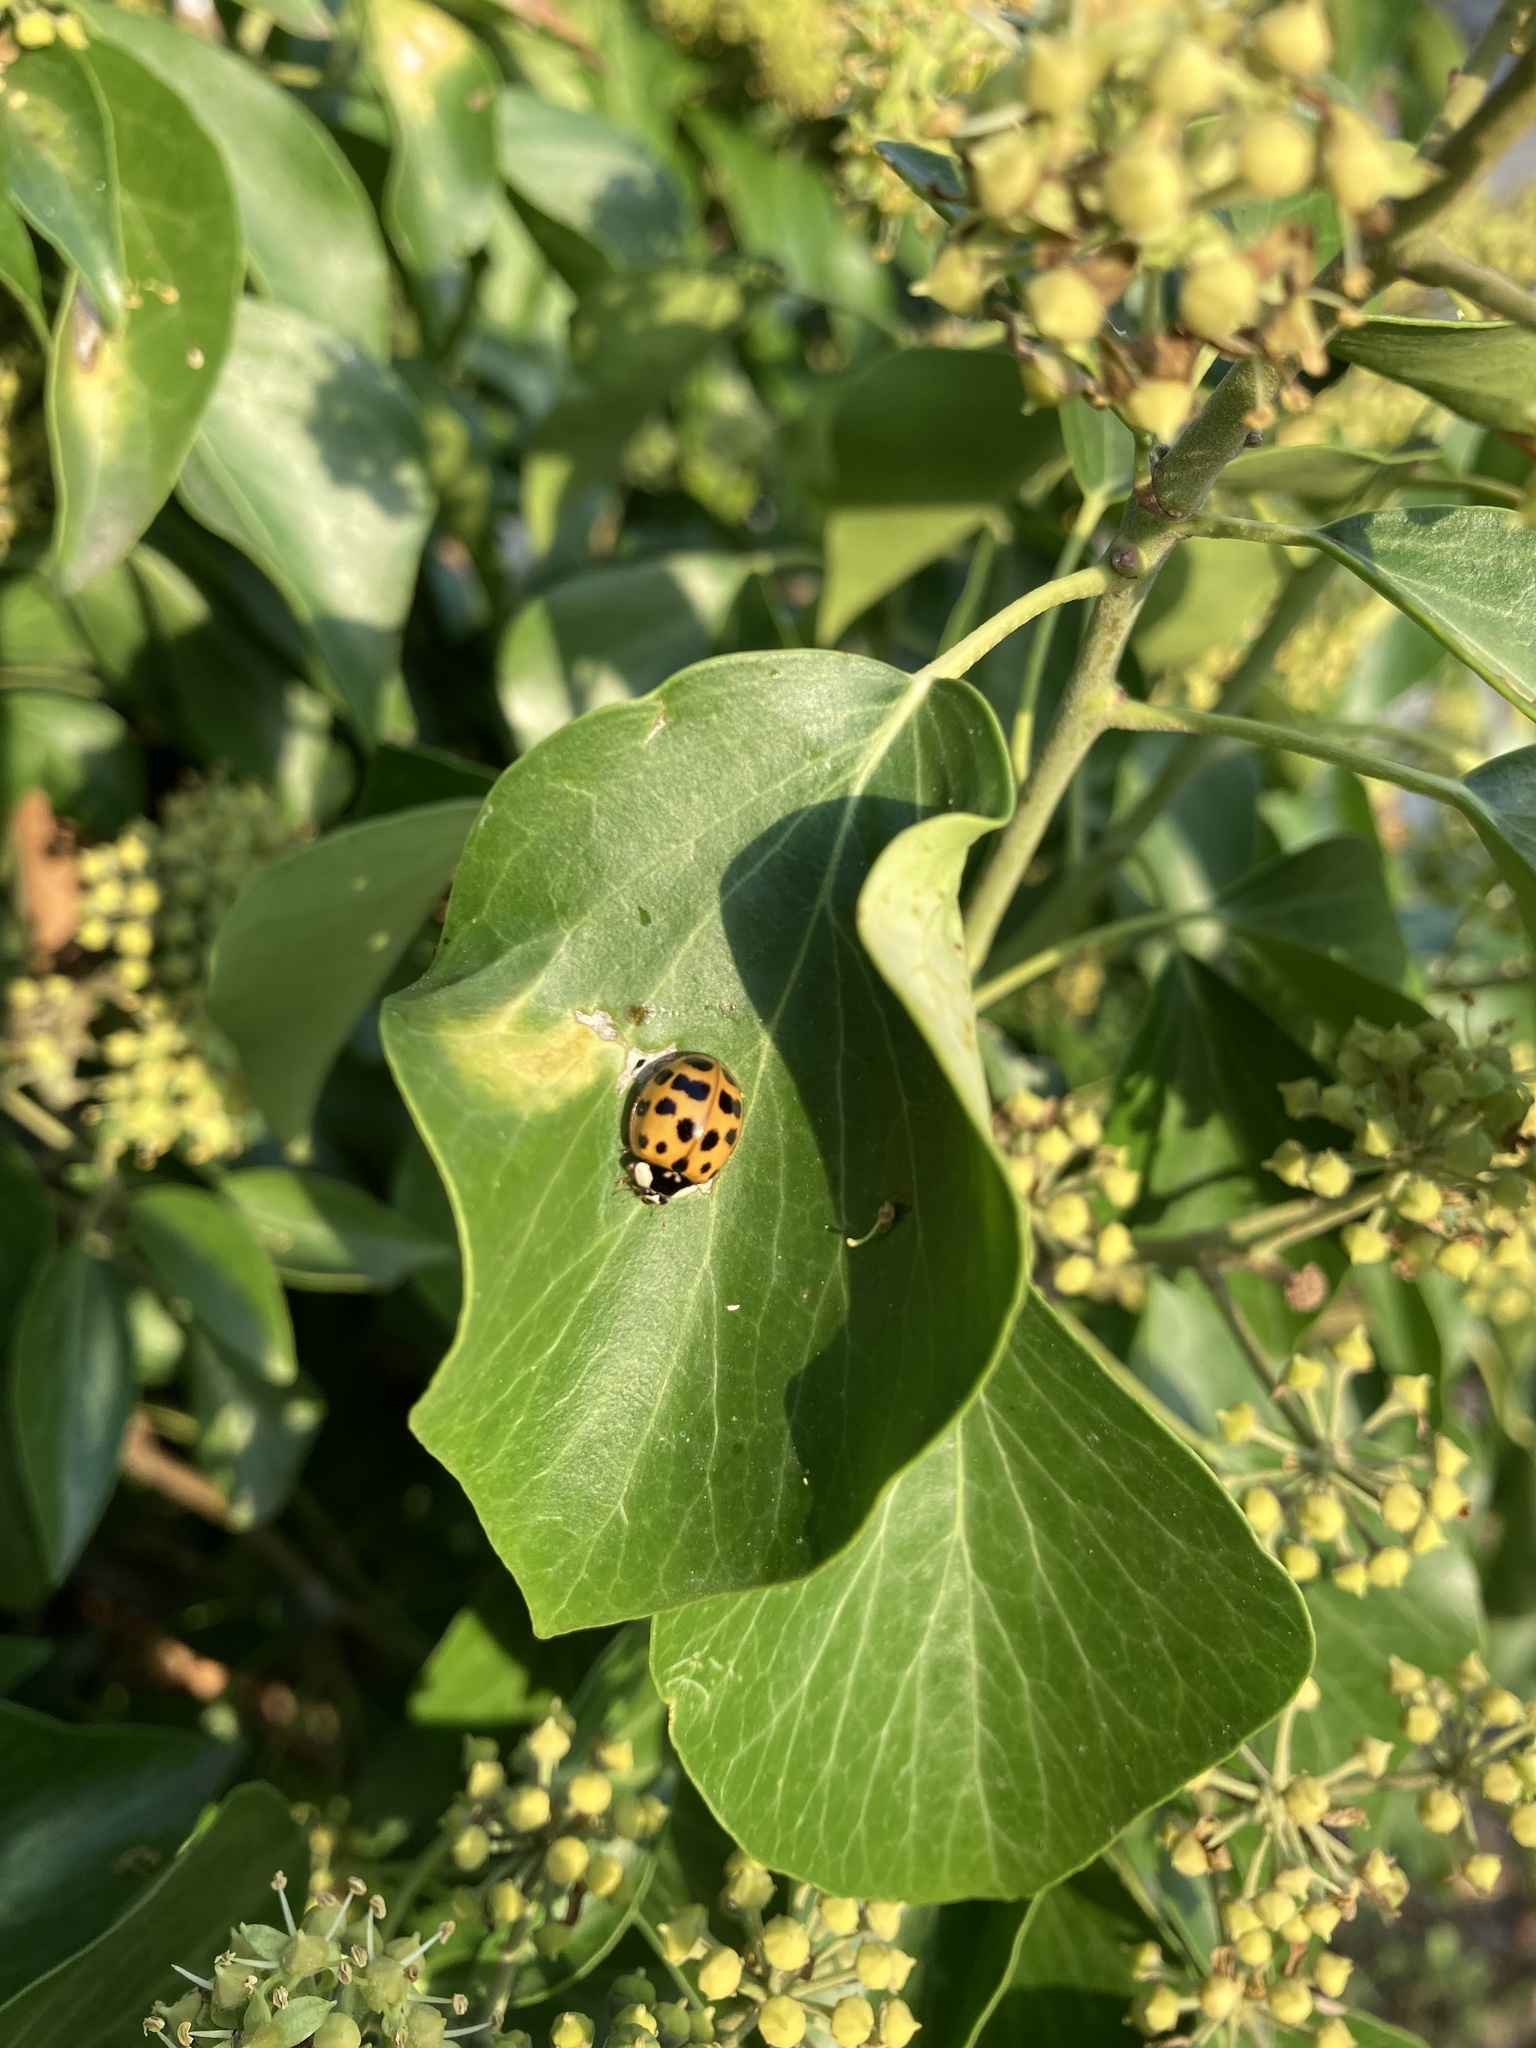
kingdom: Animalia
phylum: Arthropoda
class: Insecta
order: Coleoptera
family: Coccinellidae
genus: Harmonia
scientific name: Harmonia axyridis
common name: Harlequin ladybird
